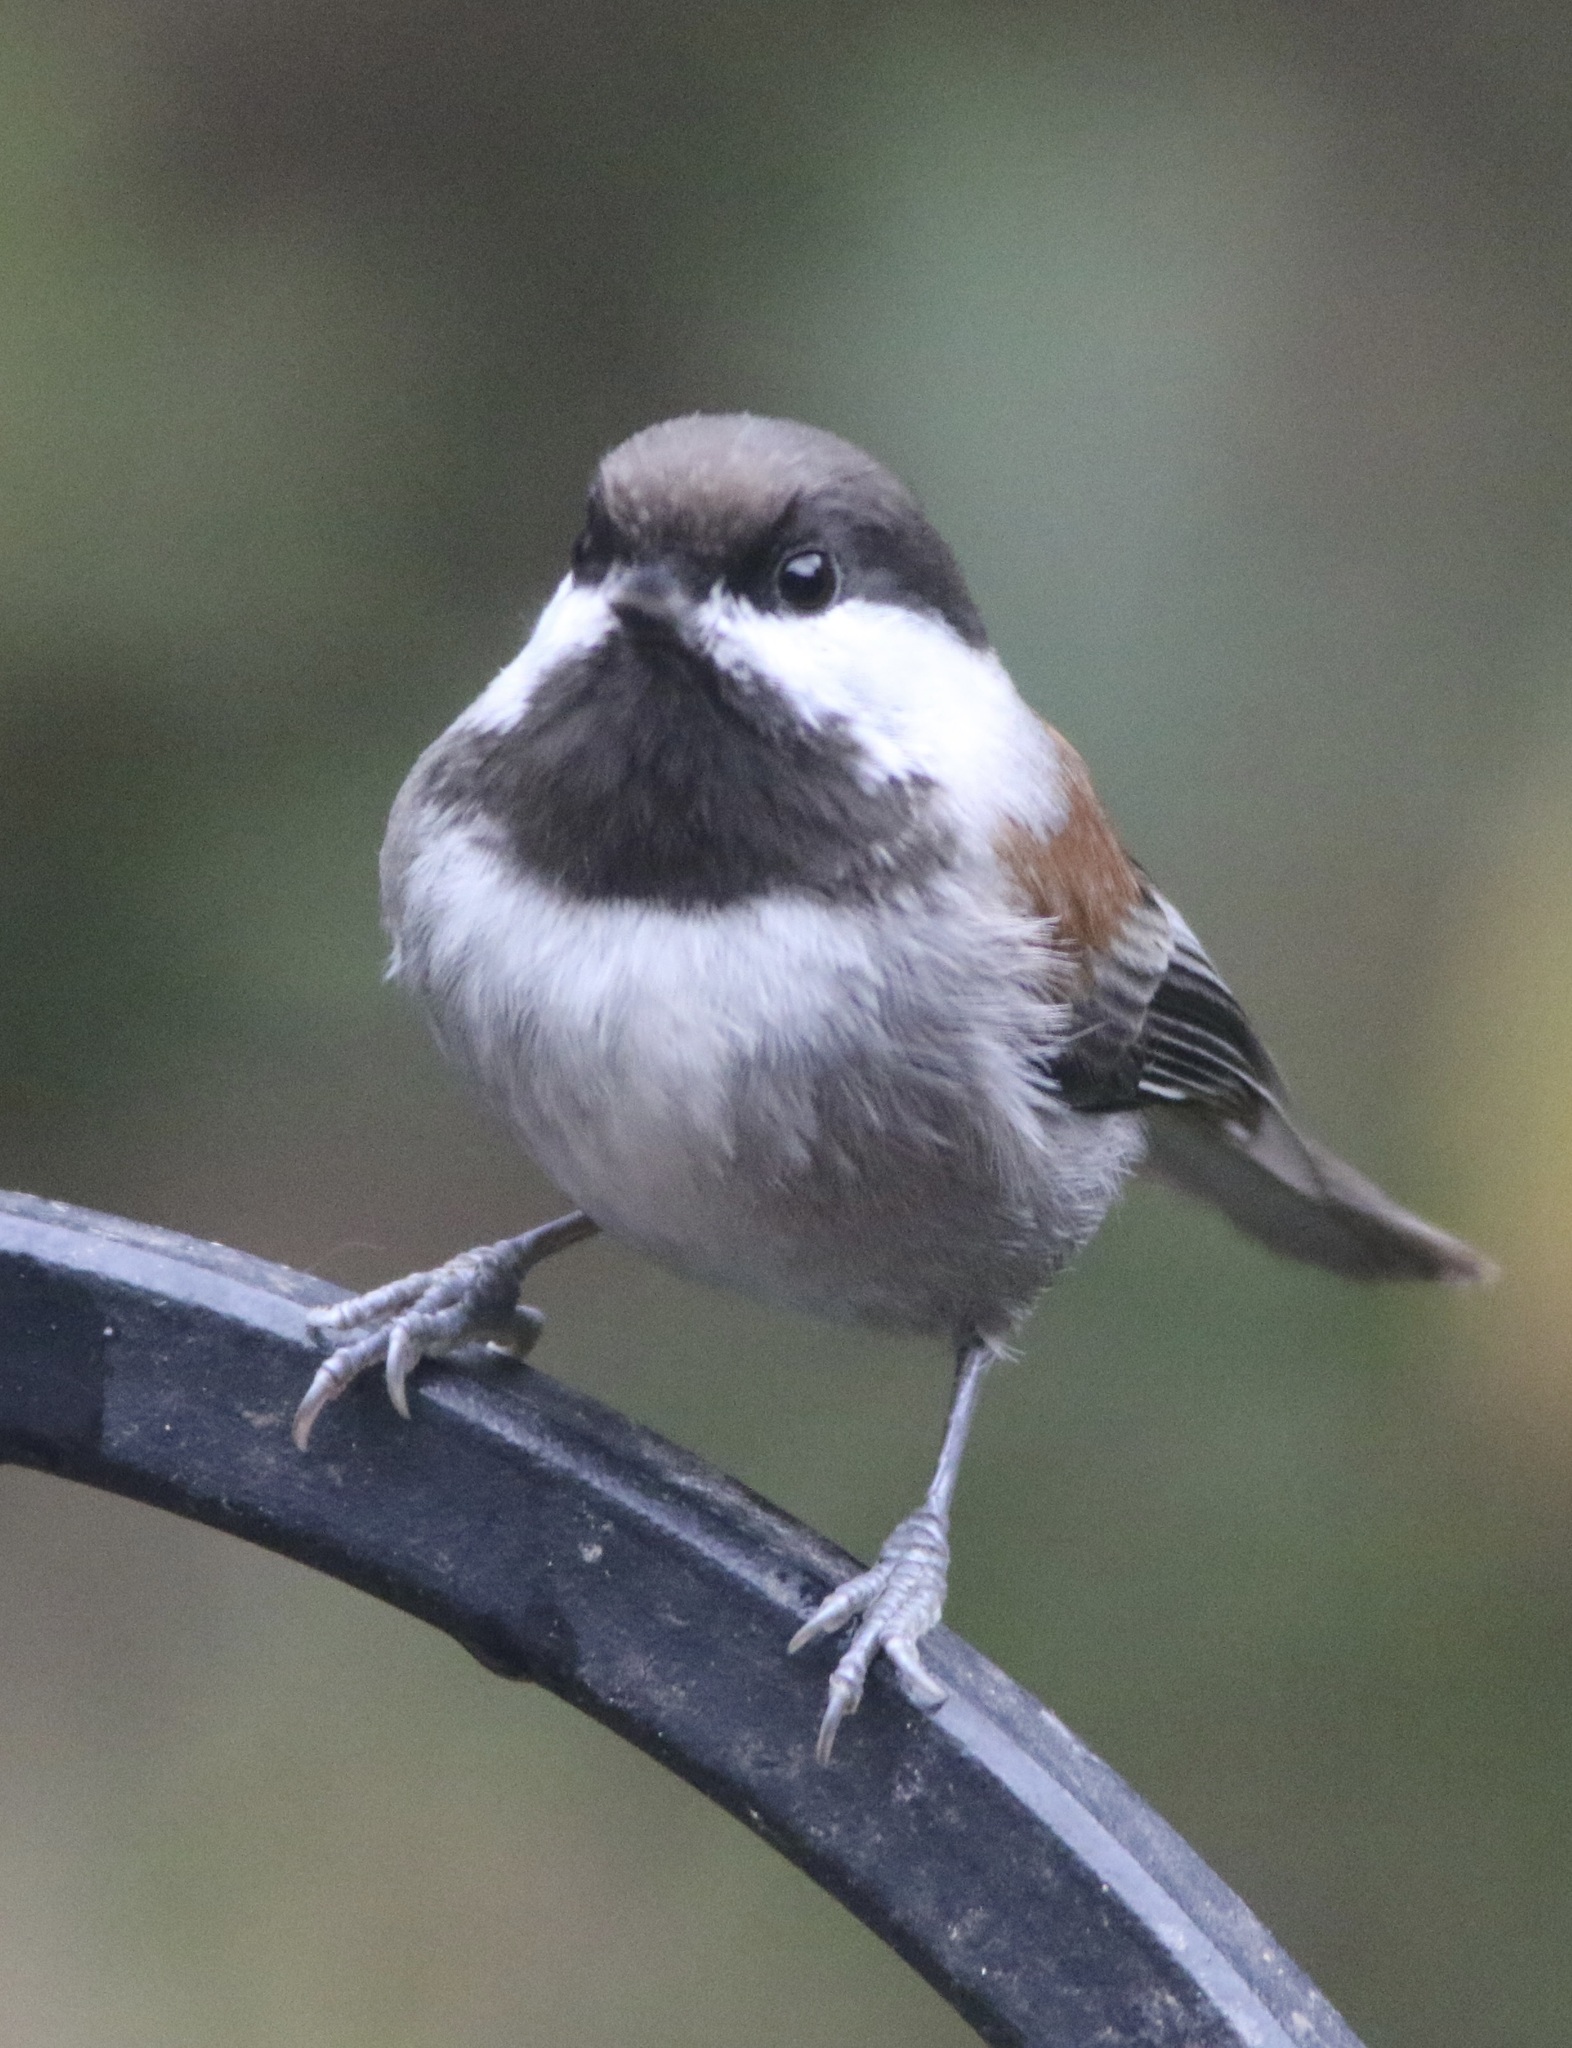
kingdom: Animalia
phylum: Chordata
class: Aves
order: Passeriformes
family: Paridae
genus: Poecile
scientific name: Poecile rufescens
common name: Chestnut-backed chickadee
